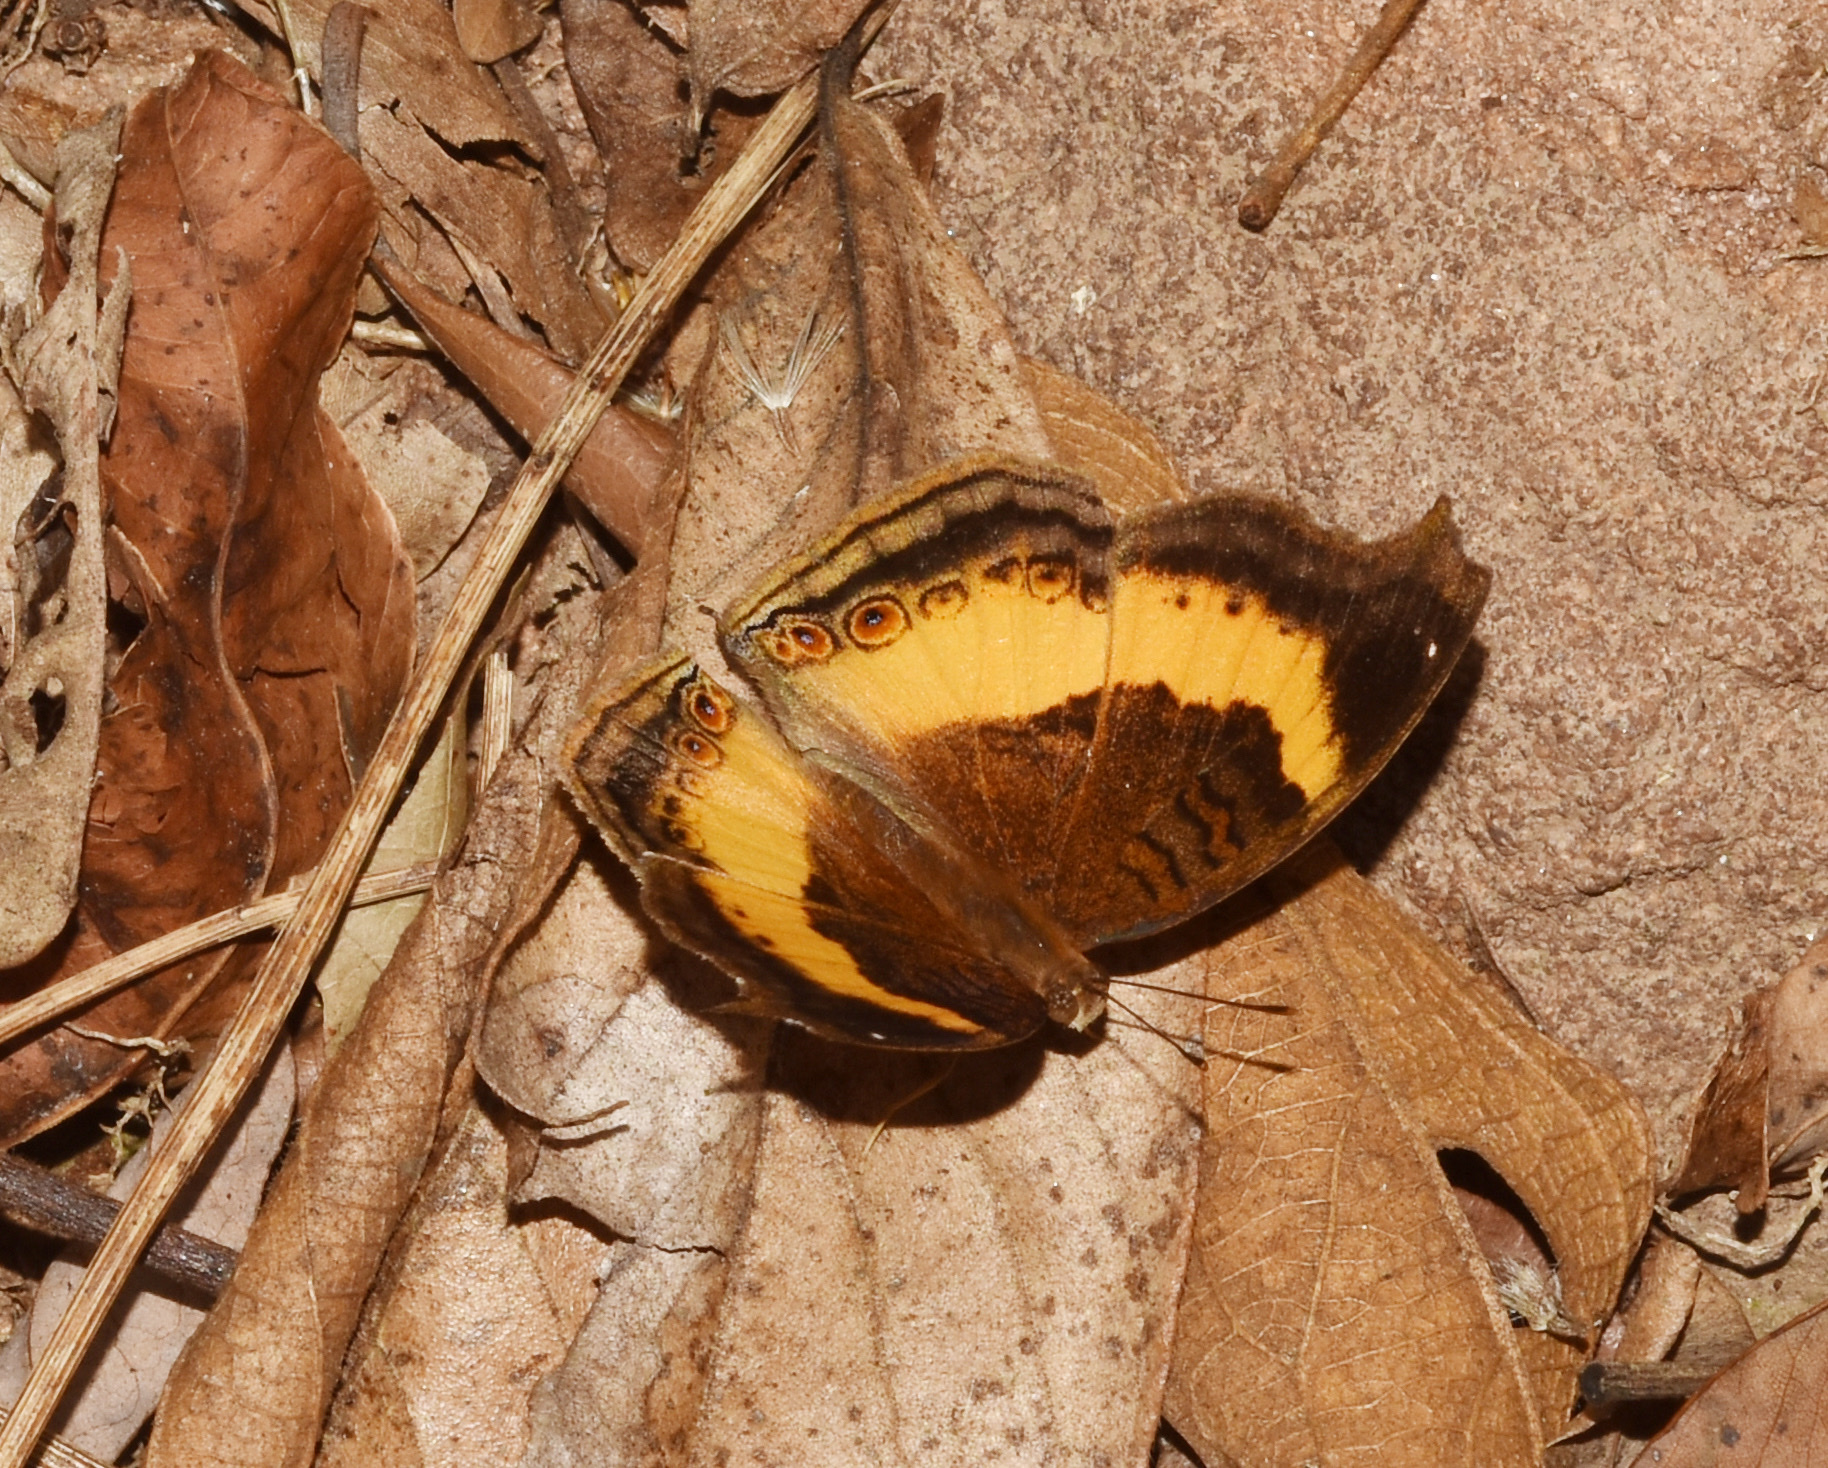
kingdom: Animalia
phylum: Arthropoda
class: Insecta
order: Lepidoptera
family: Nymphalidae
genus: Junonia
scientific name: Junonia terea
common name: Soldier pansy
